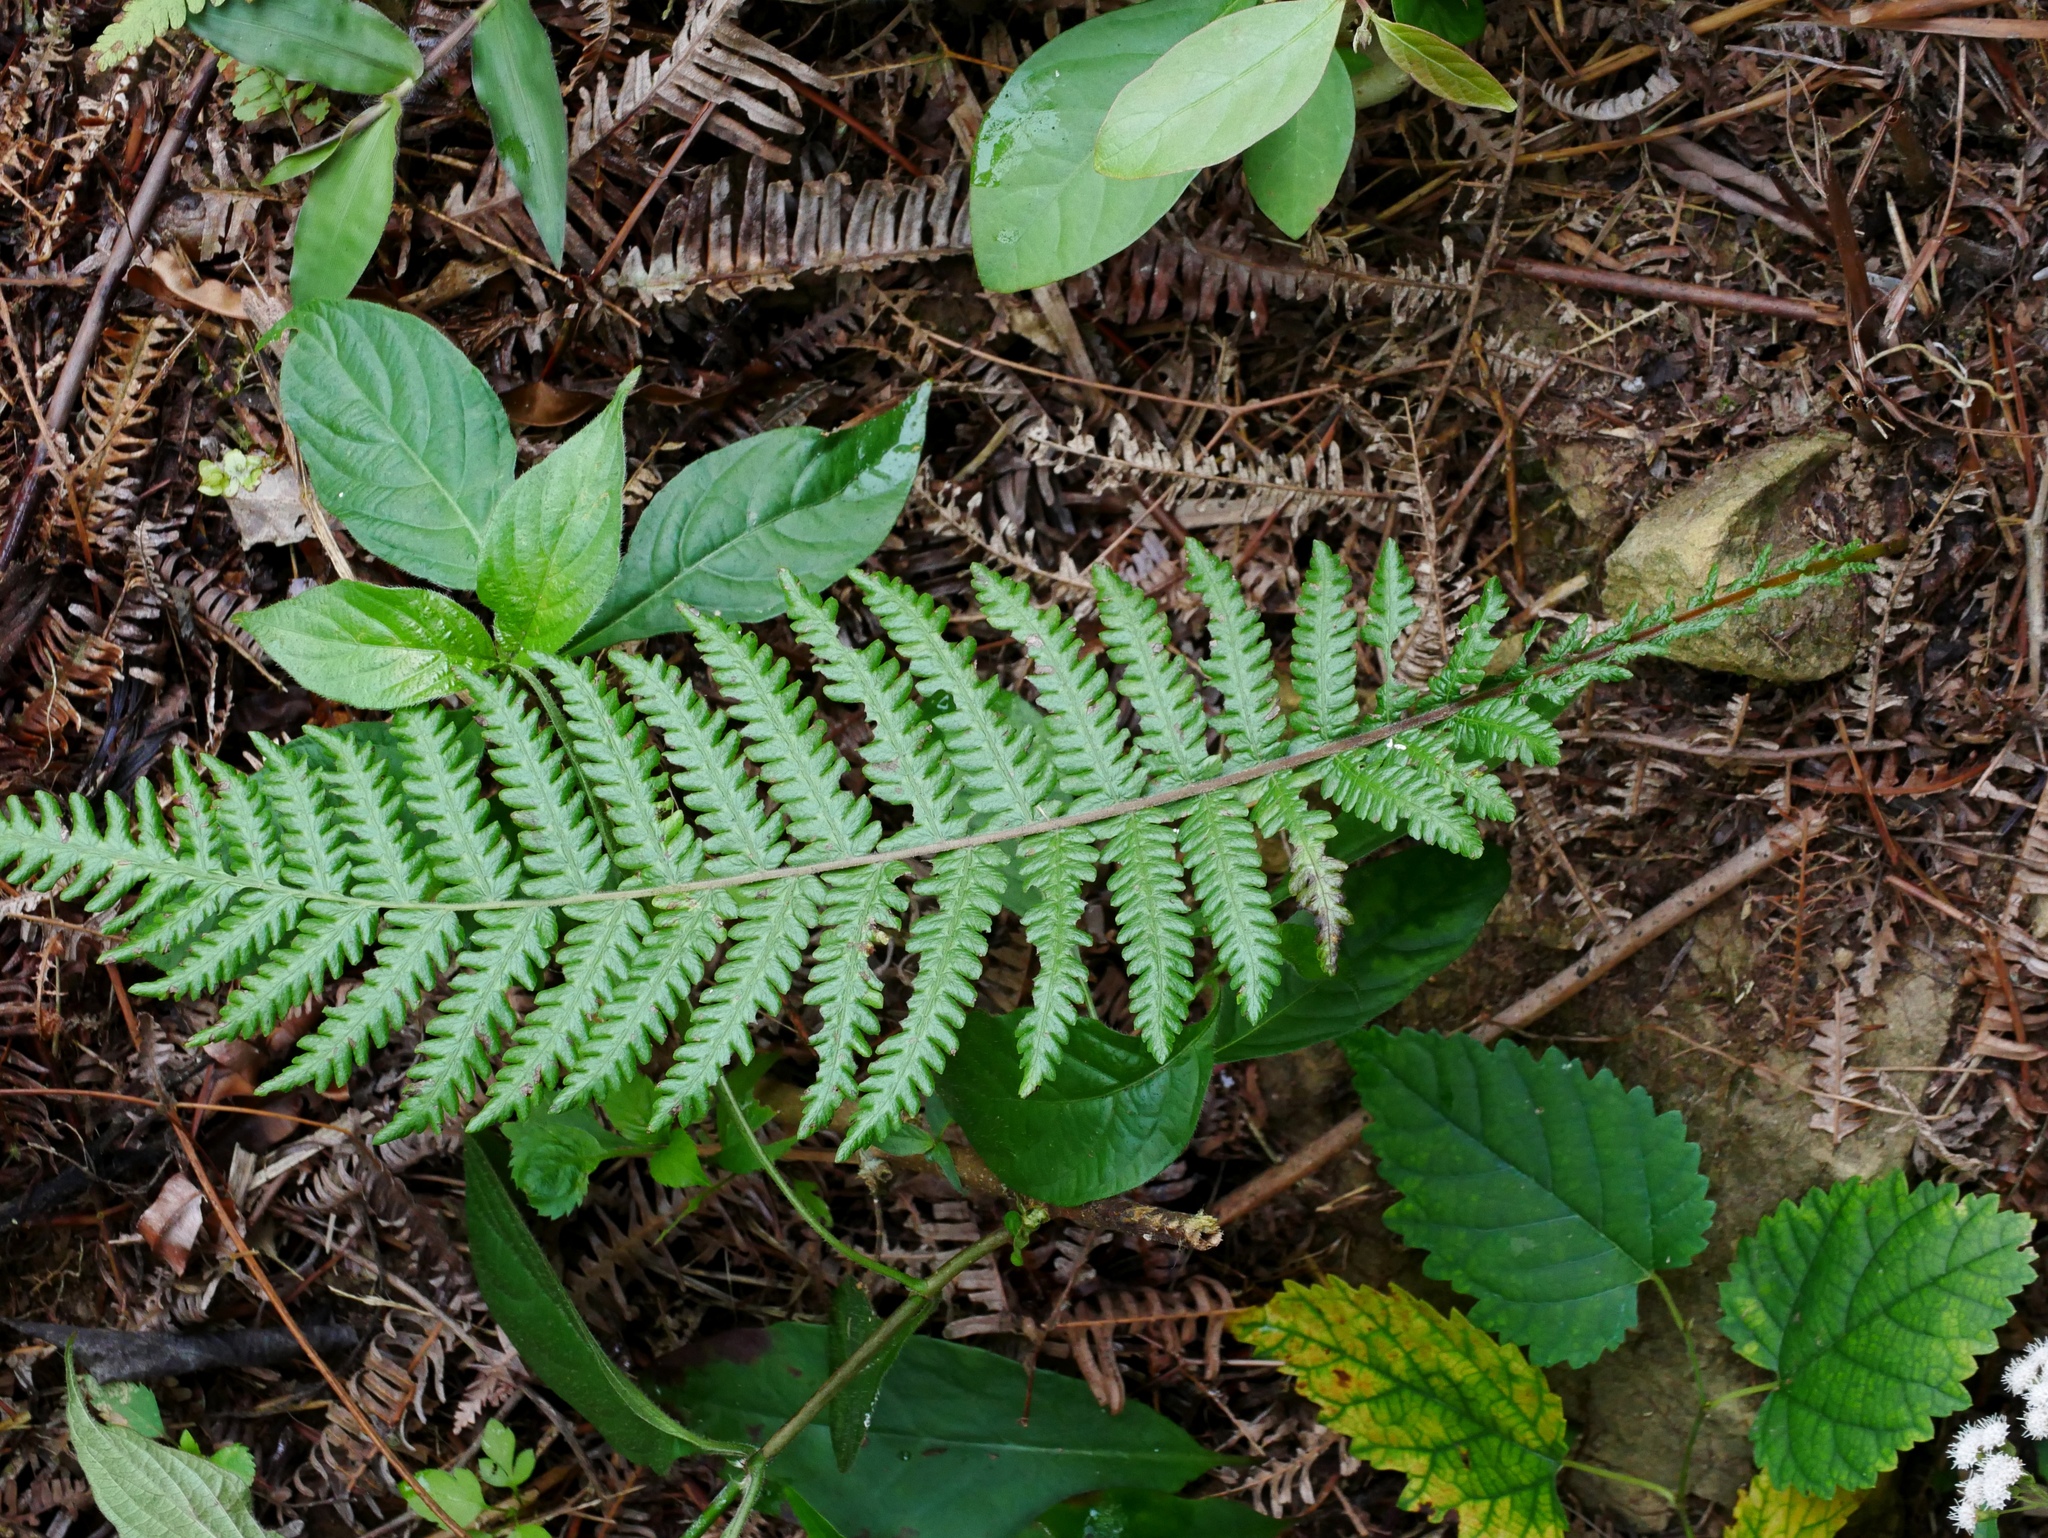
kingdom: Plantae
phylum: Tracheophyta
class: Polypodiopsida
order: Polypodiales
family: Thelypteridaceae
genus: Pseudocyclosorus
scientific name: Pseudocyclosorus esquirolii
